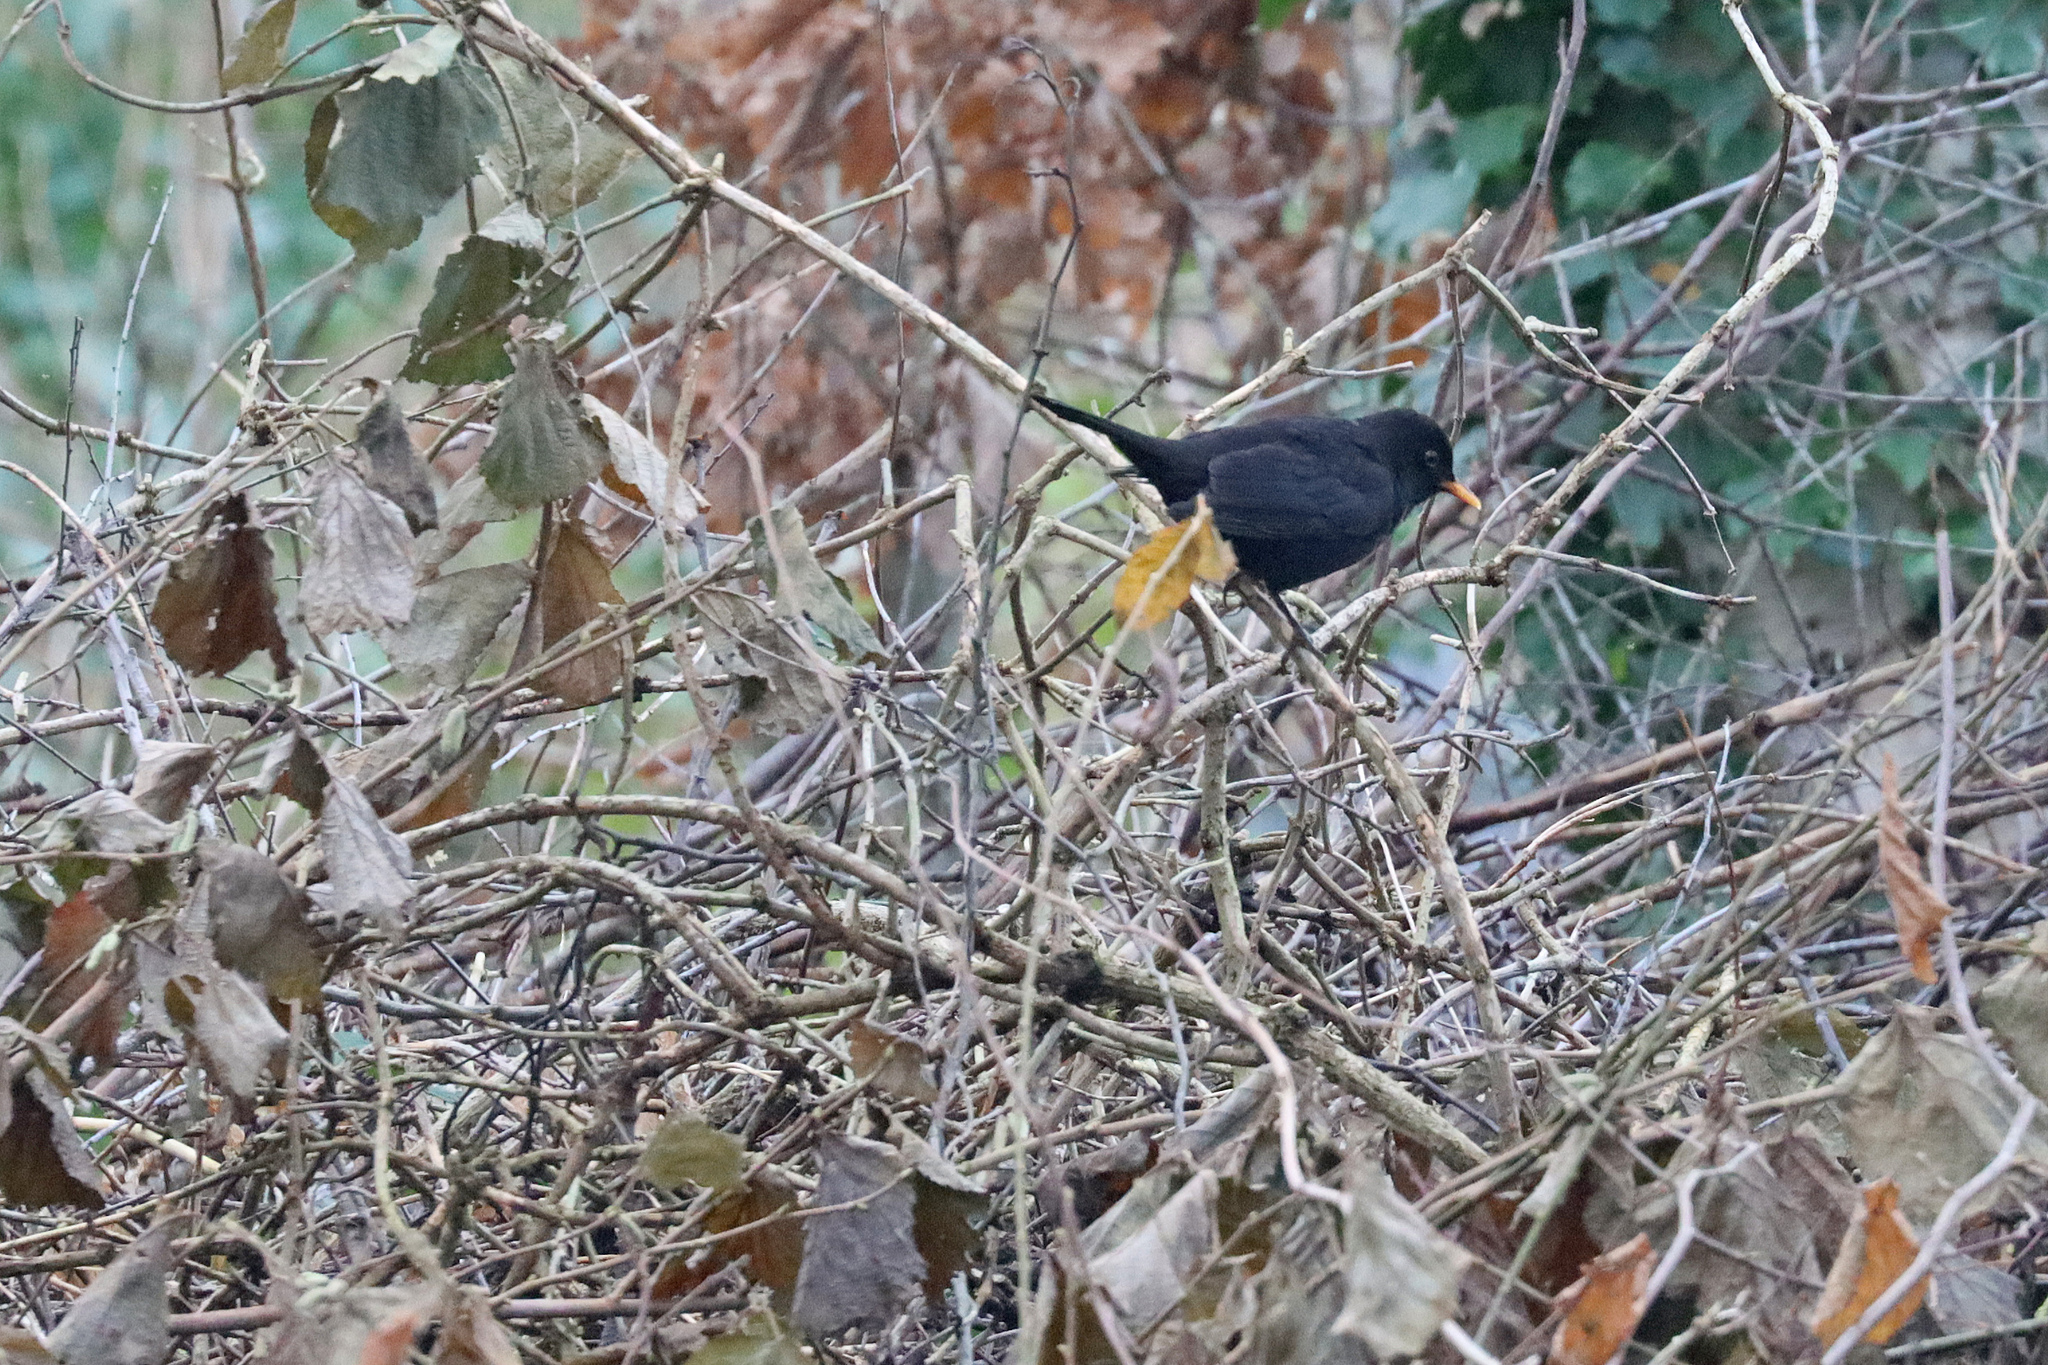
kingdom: Animalia
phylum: Chordata
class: Aves
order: Passeriformes
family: Turdidae
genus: Turdus
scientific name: Turdus merula
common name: Common blackbird
